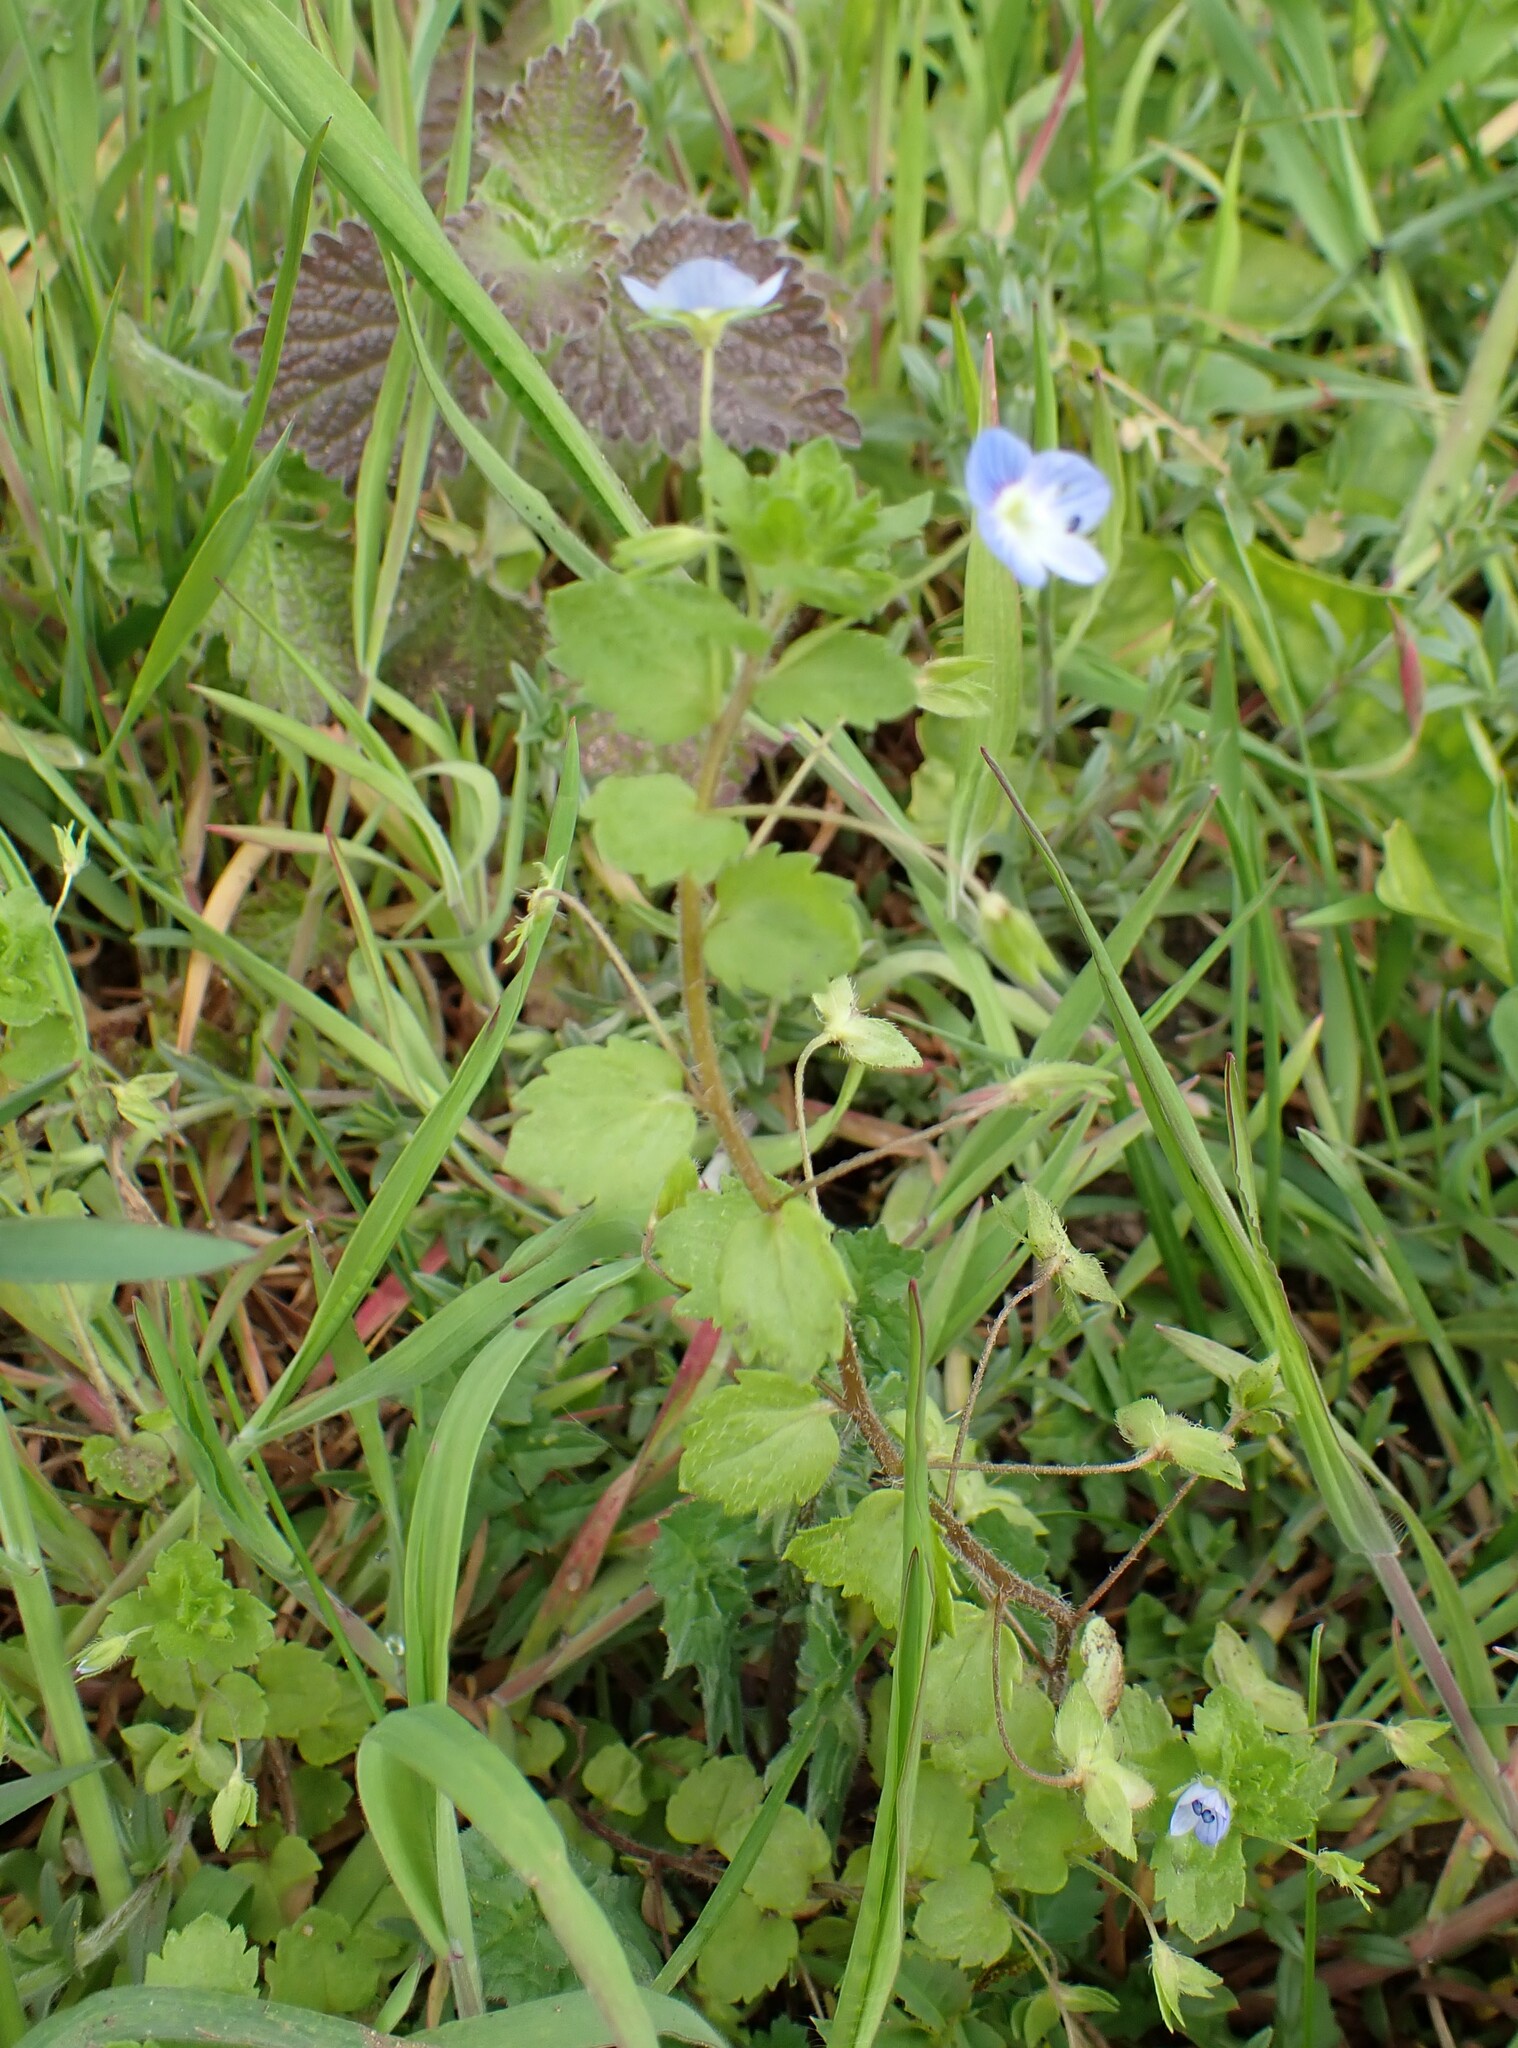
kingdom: Plantae
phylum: Tracheophyta
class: Magnoliopsida
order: Lamiales
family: Plantaginaceae
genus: Veronica
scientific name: Veronica persica
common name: Common field-speedwell
